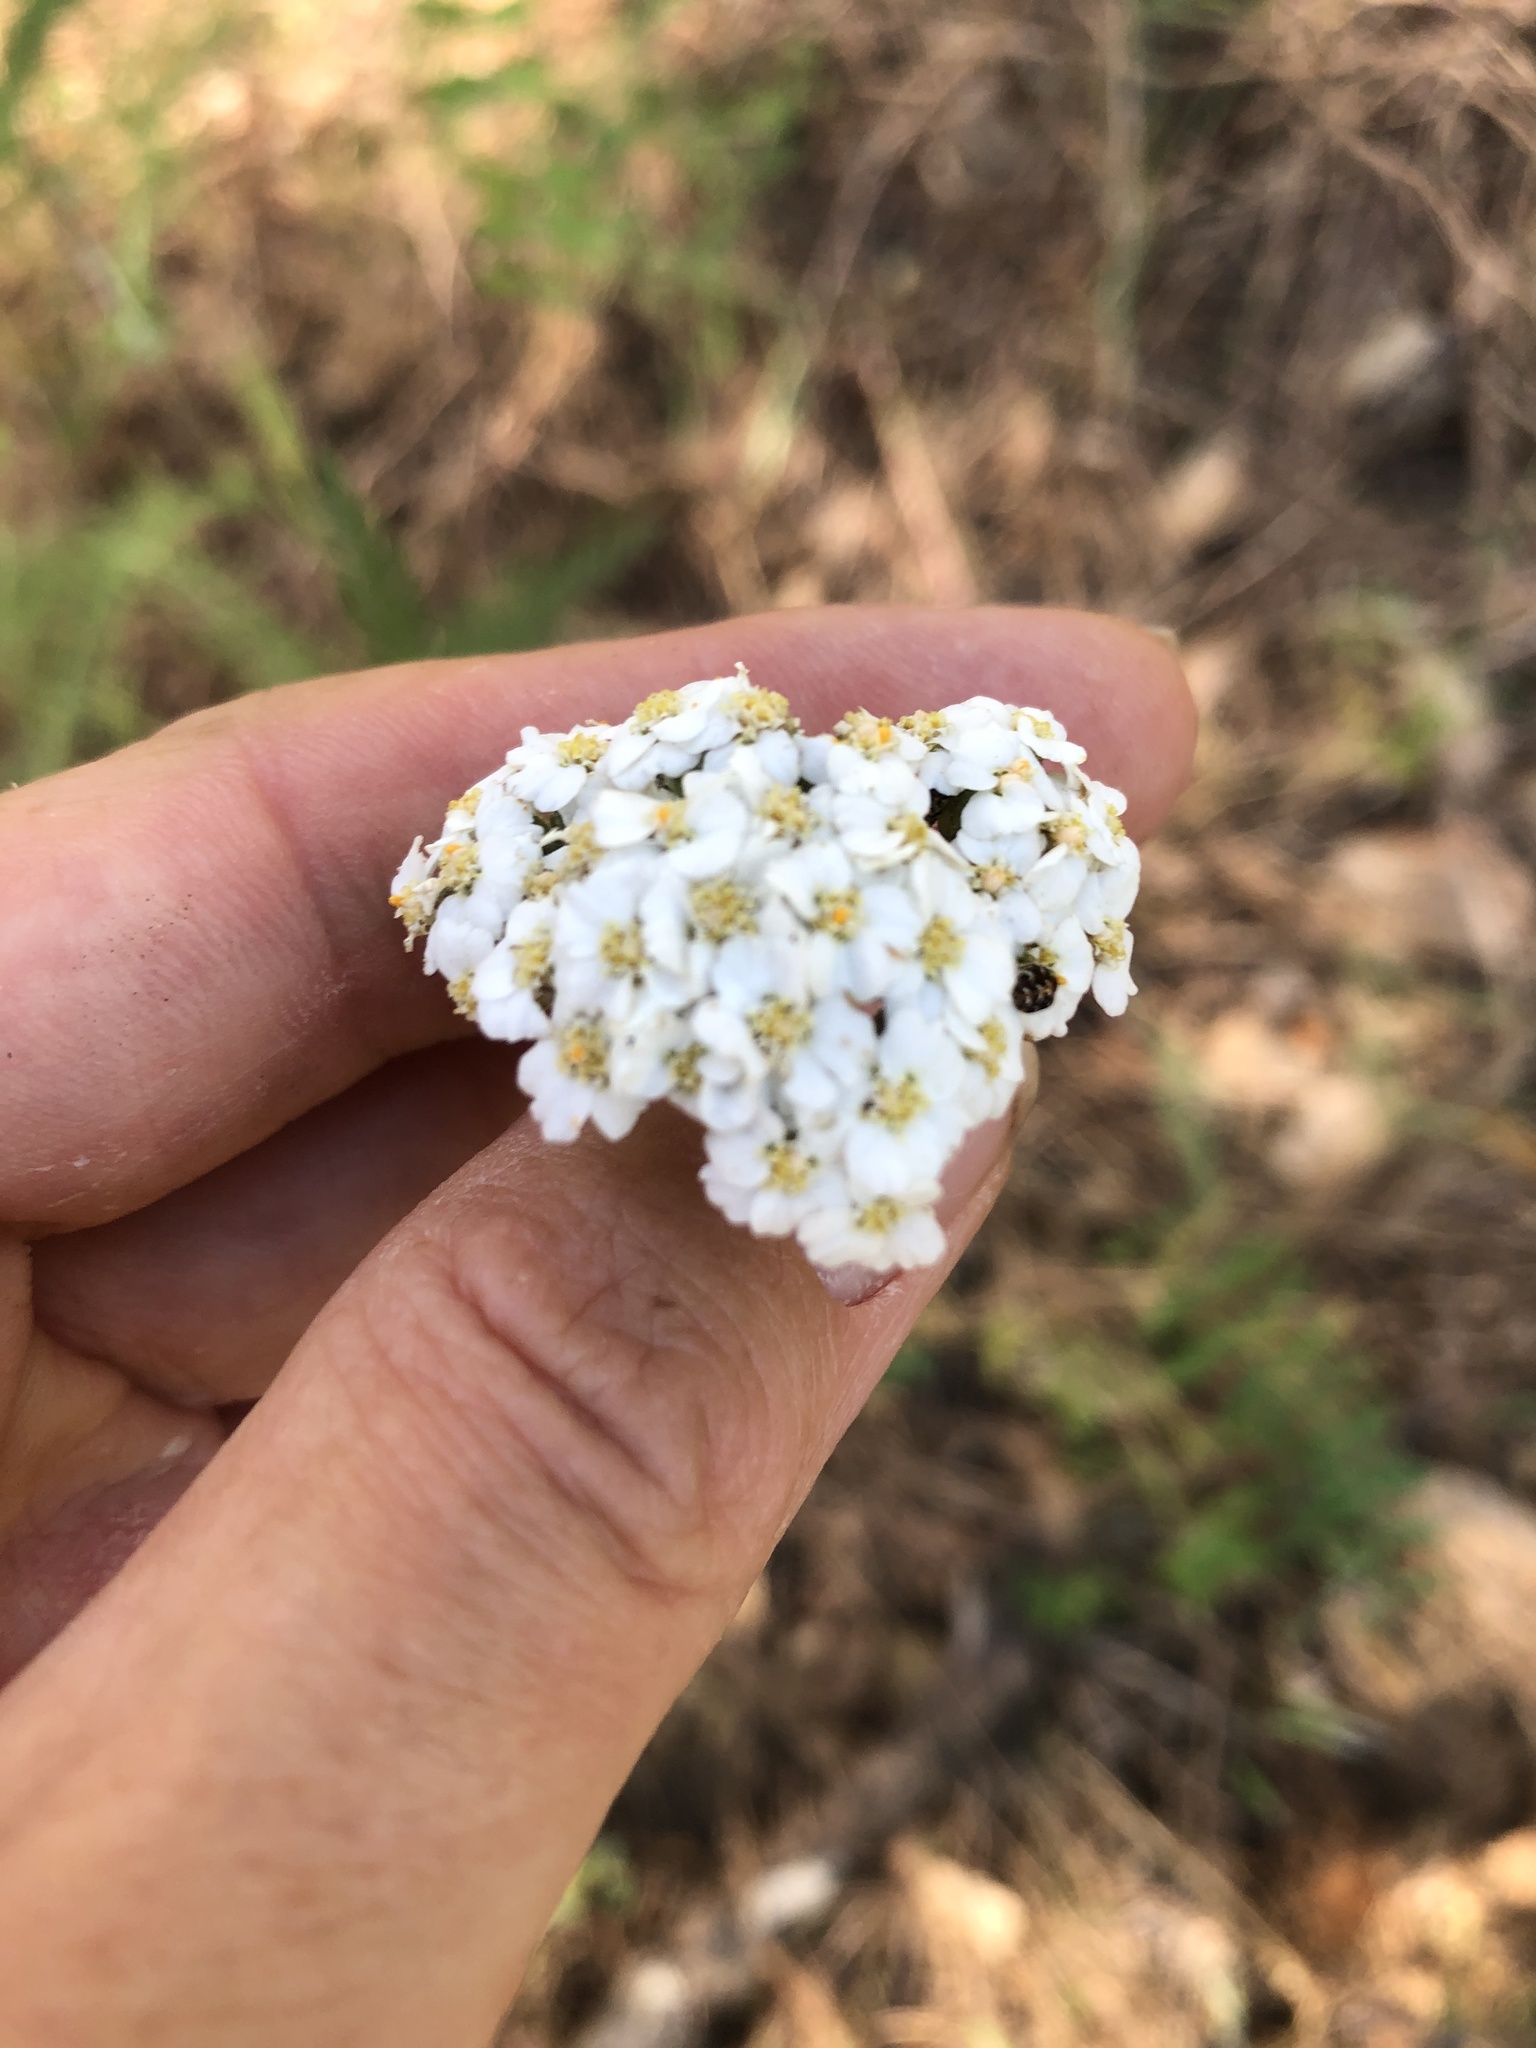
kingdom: Plantae
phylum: Tracheophyta
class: Magnoliopsida
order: Asterales
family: Asteraceae
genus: Achillea
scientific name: Achillea millefolium
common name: Yarrow
